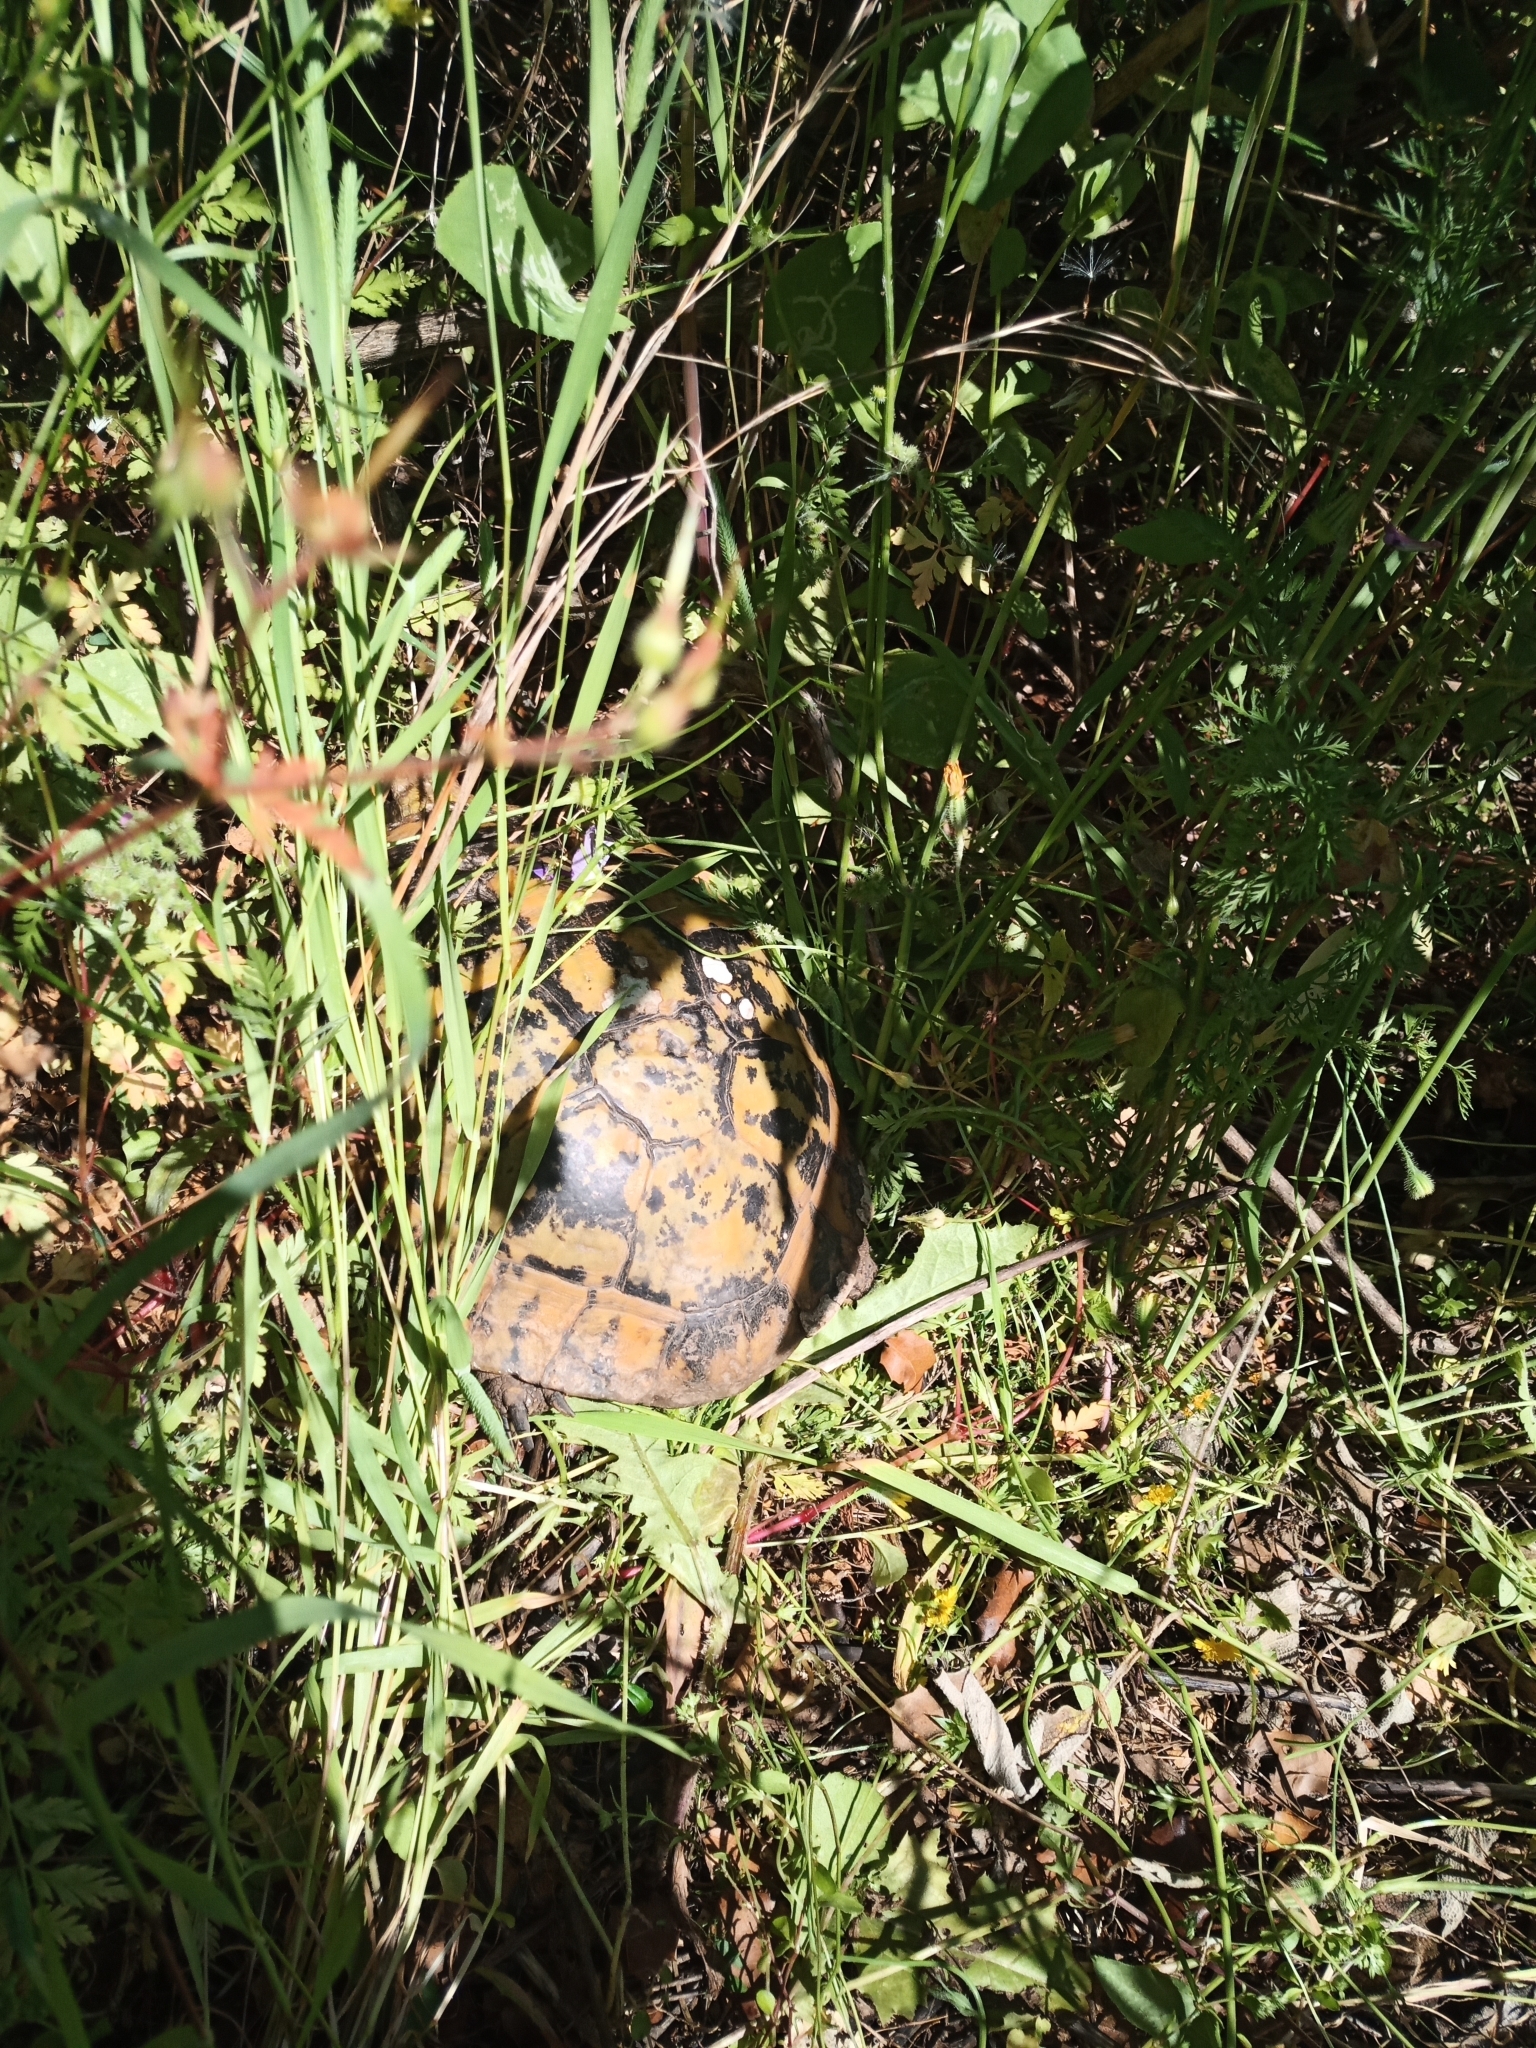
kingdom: Animalia
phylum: Chordata
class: Testudines
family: Testudinidae
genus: Testudo
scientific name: Testudo hermanni
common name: Hermann's tortoise
